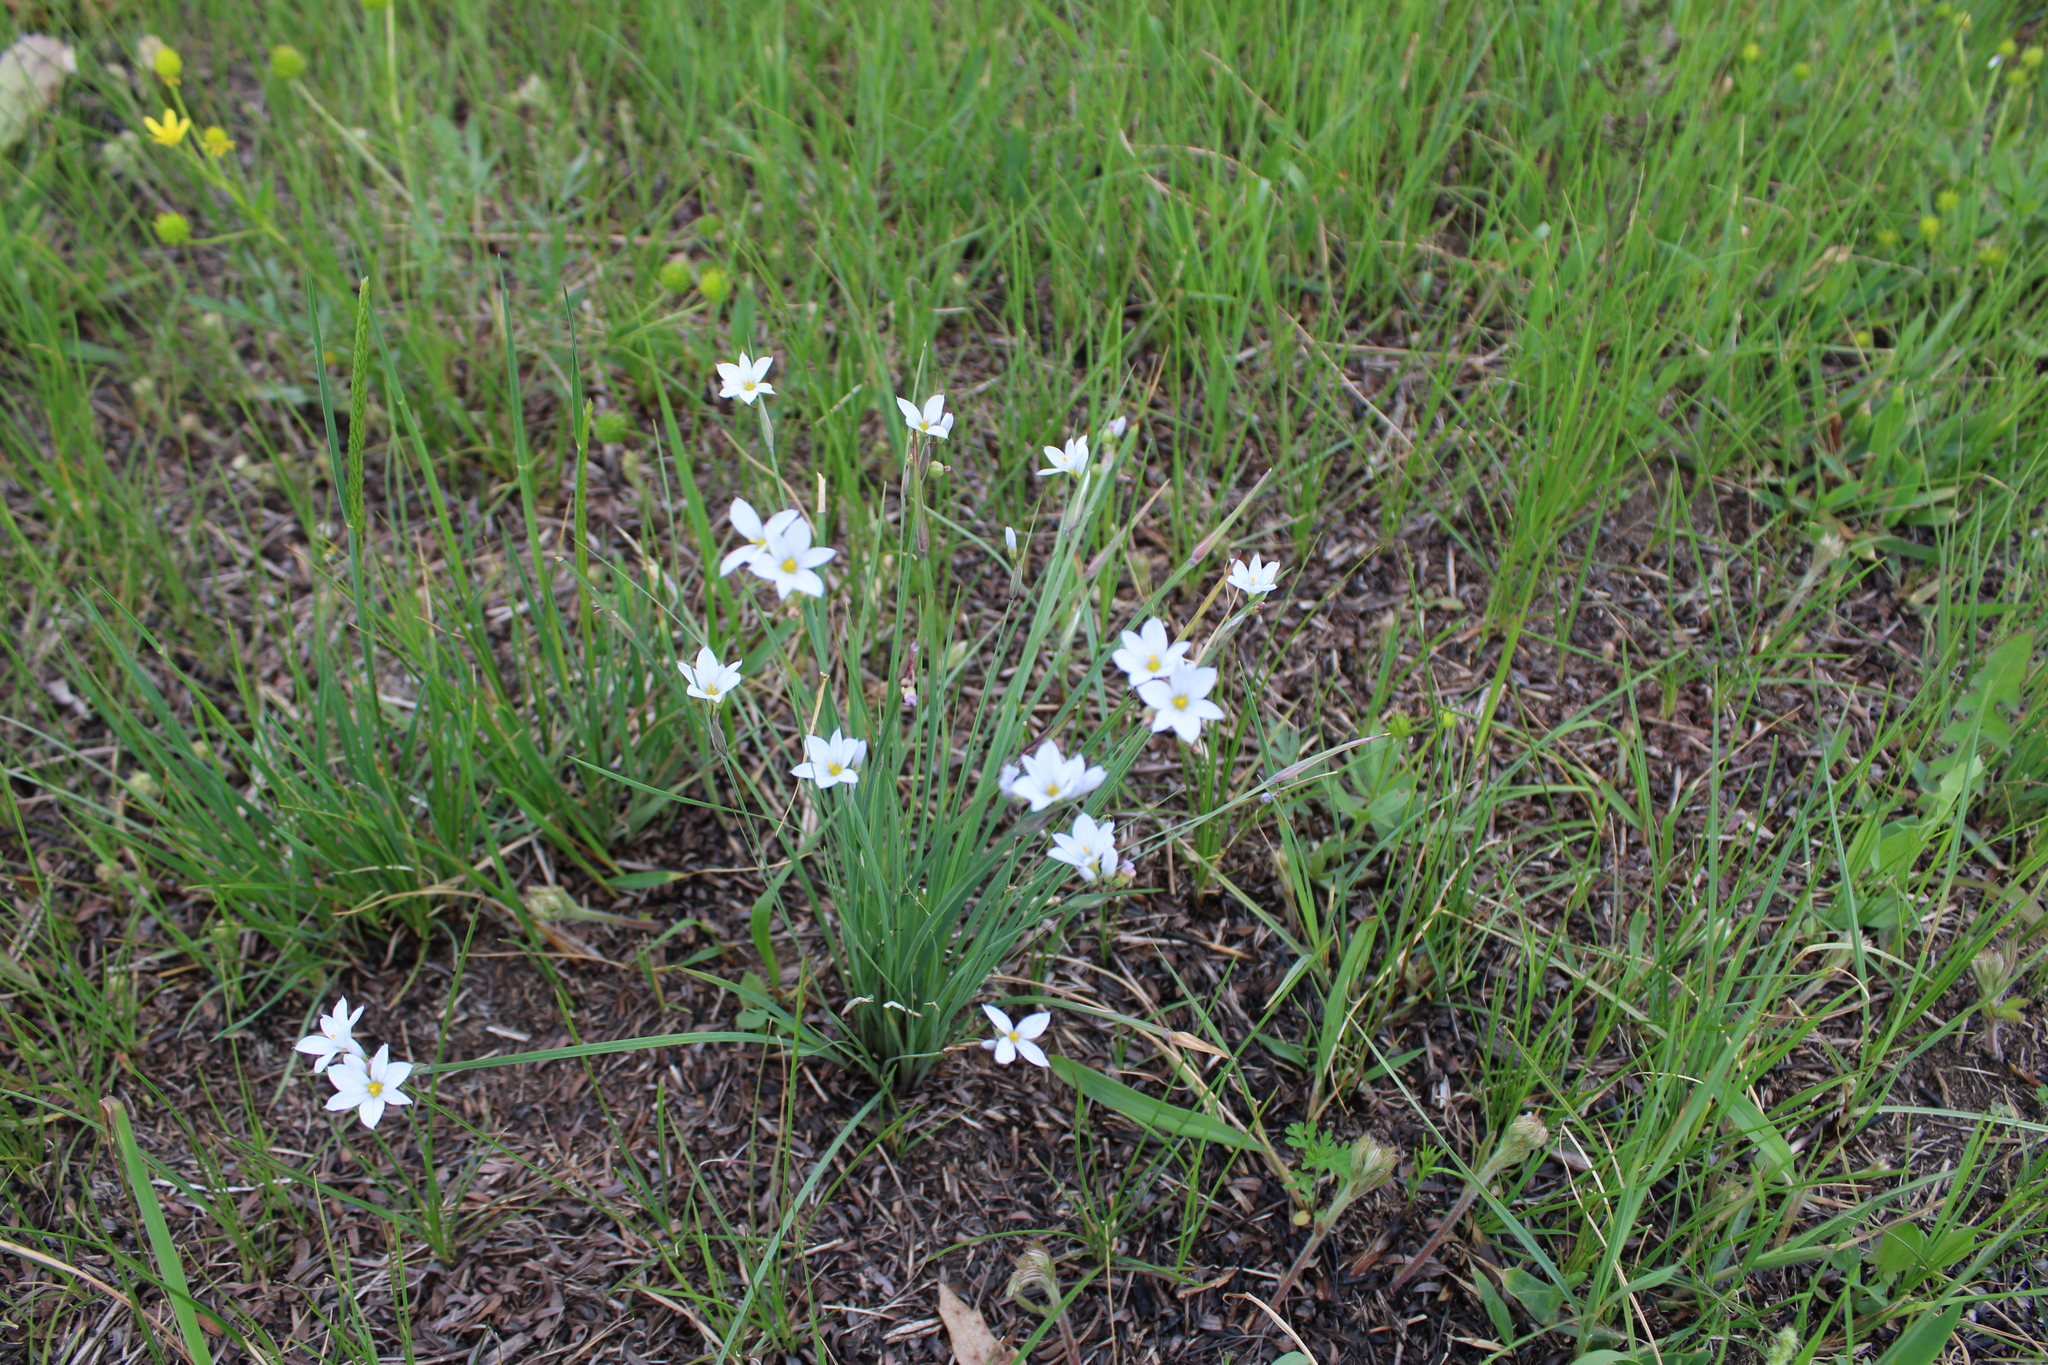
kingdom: Plantae
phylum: Tracheophyta
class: Liliopsida
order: Asparagales
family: Iridaceae
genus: Sisyrinchium
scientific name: Sisyrinchium campestre
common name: Prairie blue-eyed-grass
